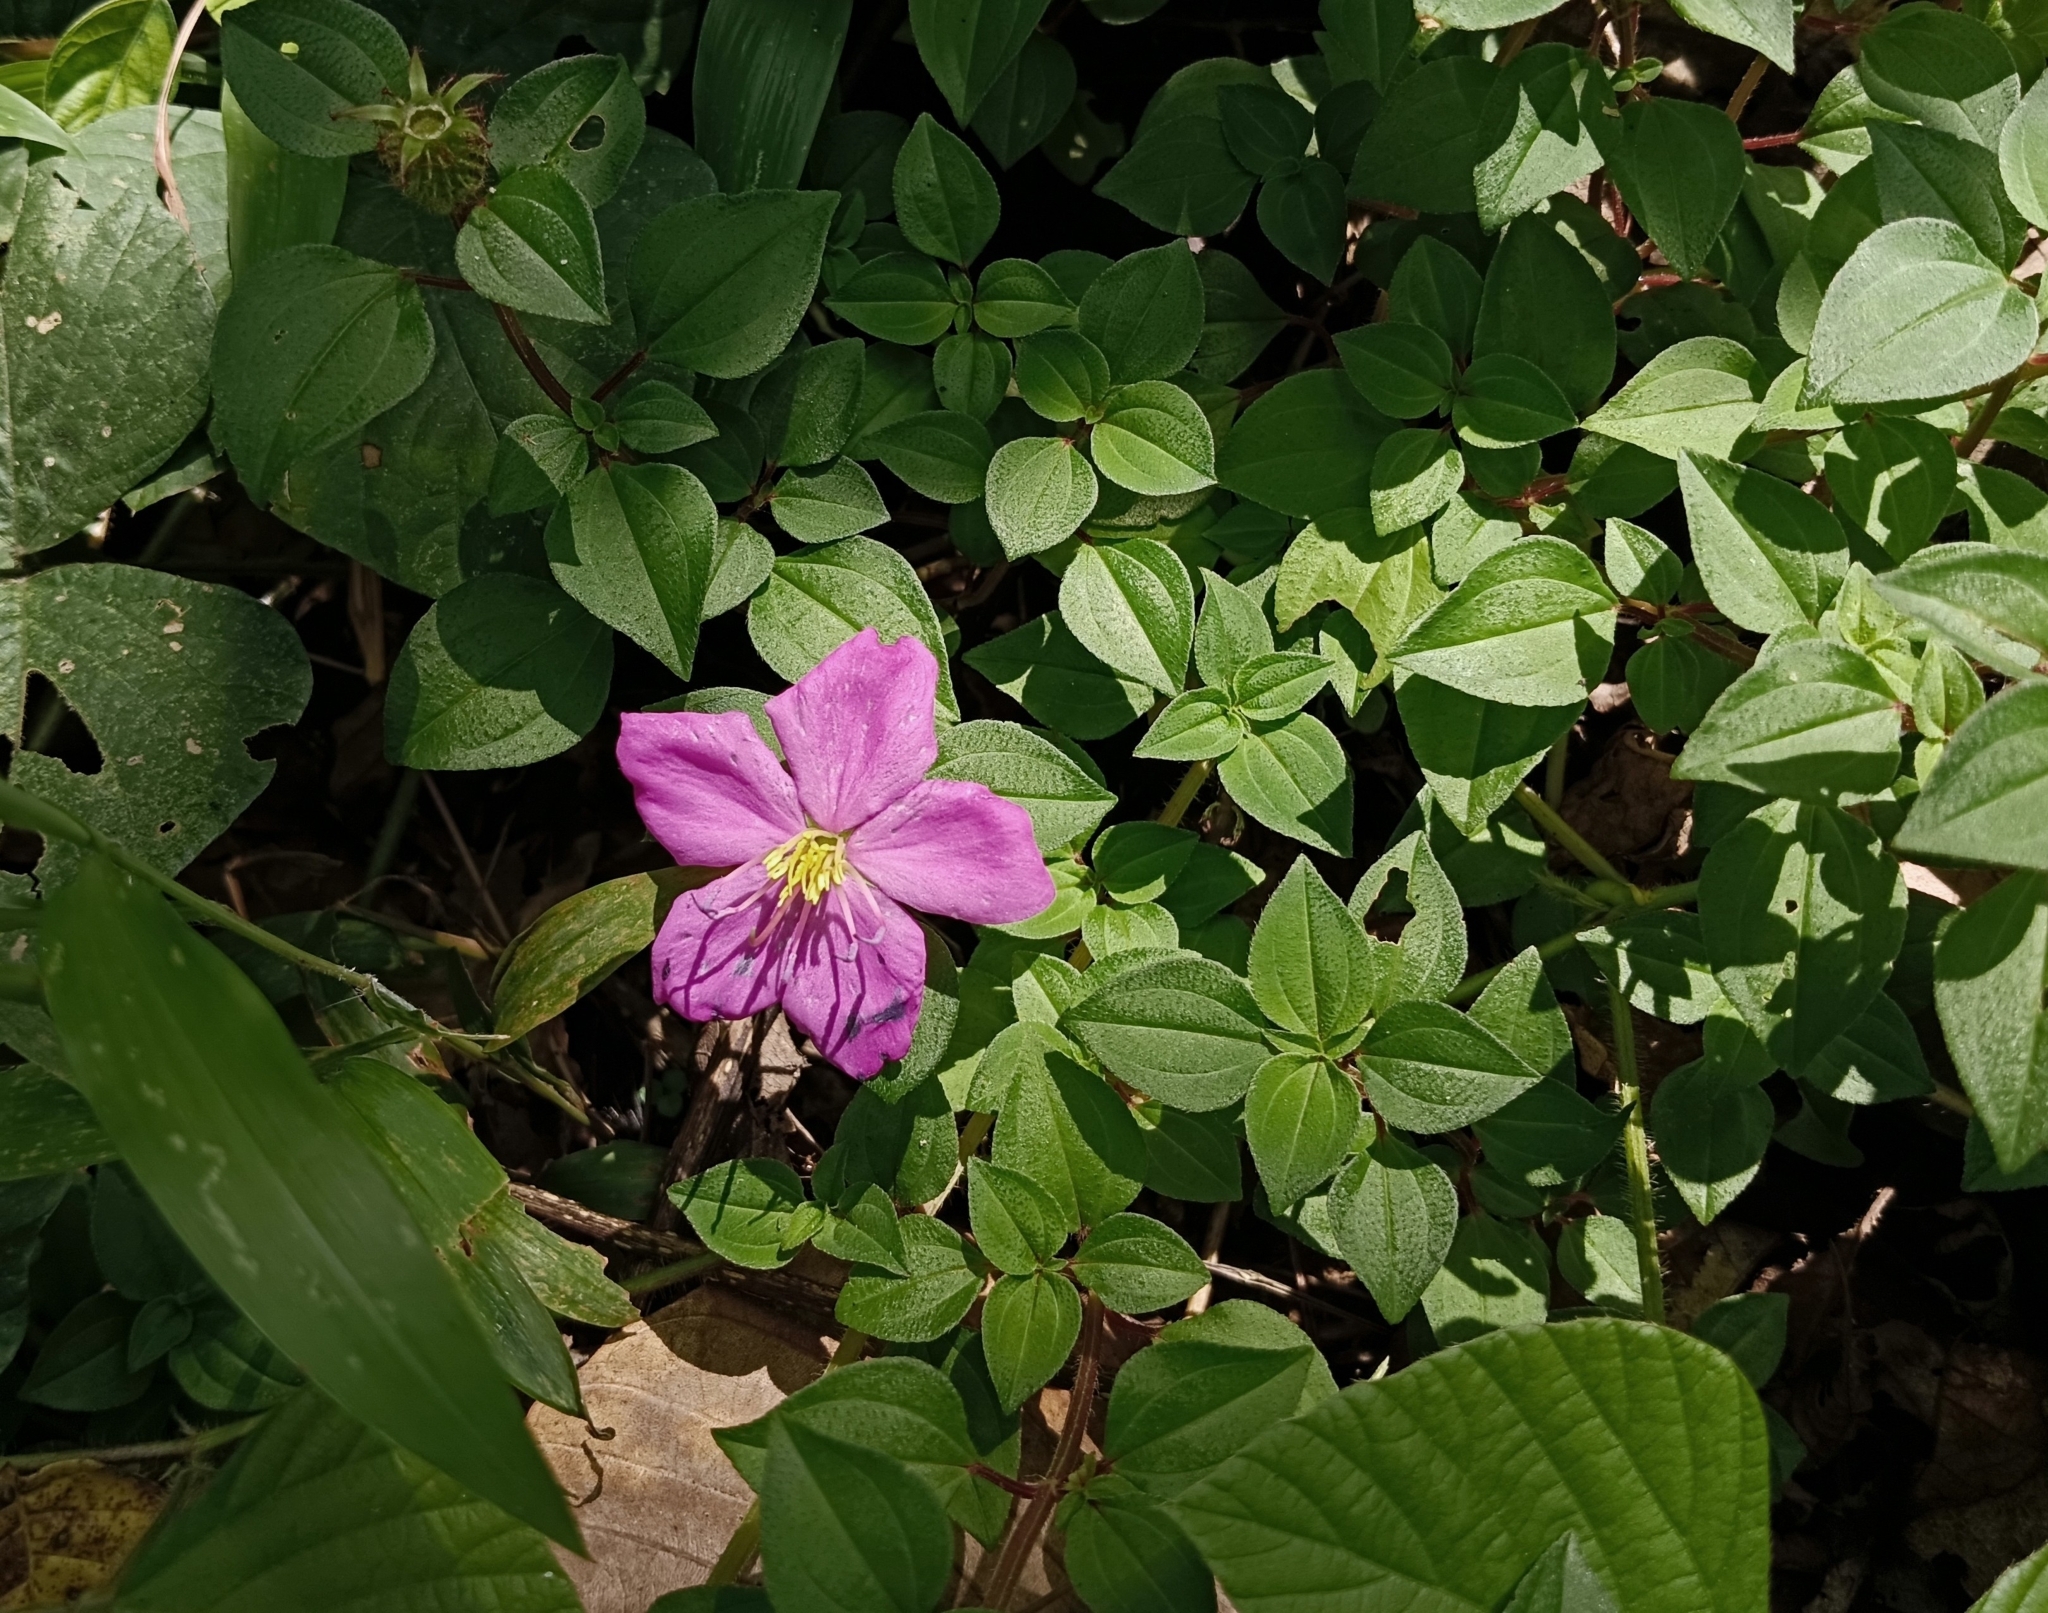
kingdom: Plantae
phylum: Tracheophyta
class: Magnoliopsida
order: Myrtales
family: Melastomataceae
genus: Heterotis
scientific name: Heterotis rotundifolia
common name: Pinklady
